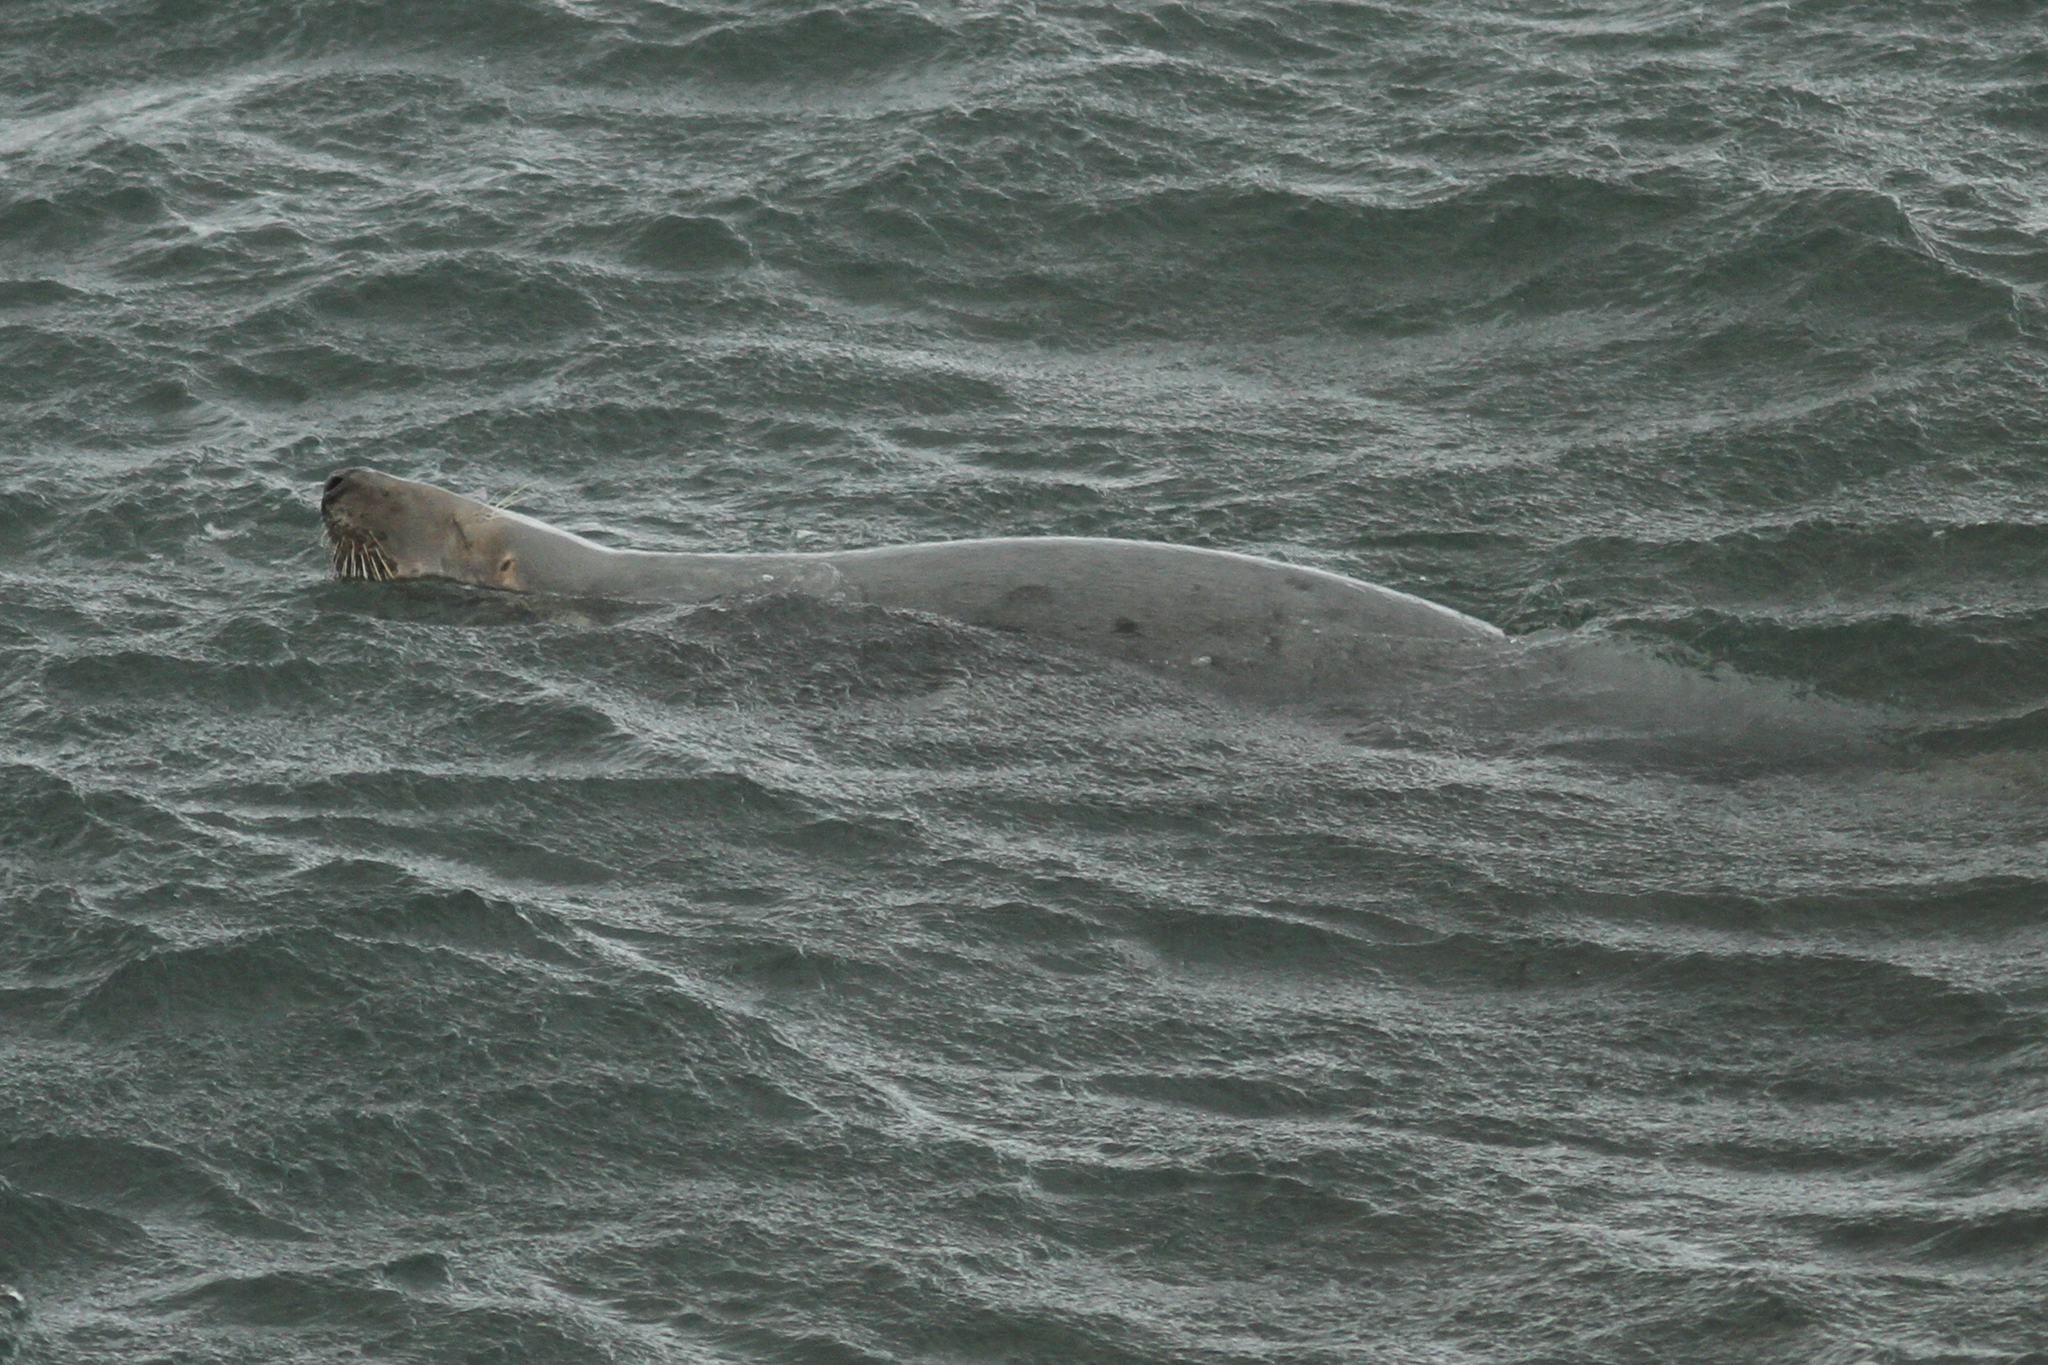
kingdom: Animalia
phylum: Chordata
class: Mammalia
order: Carnivora
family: Phocidae
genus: Halichoerus
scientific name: Halichoerus grypus
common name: Grey seal
